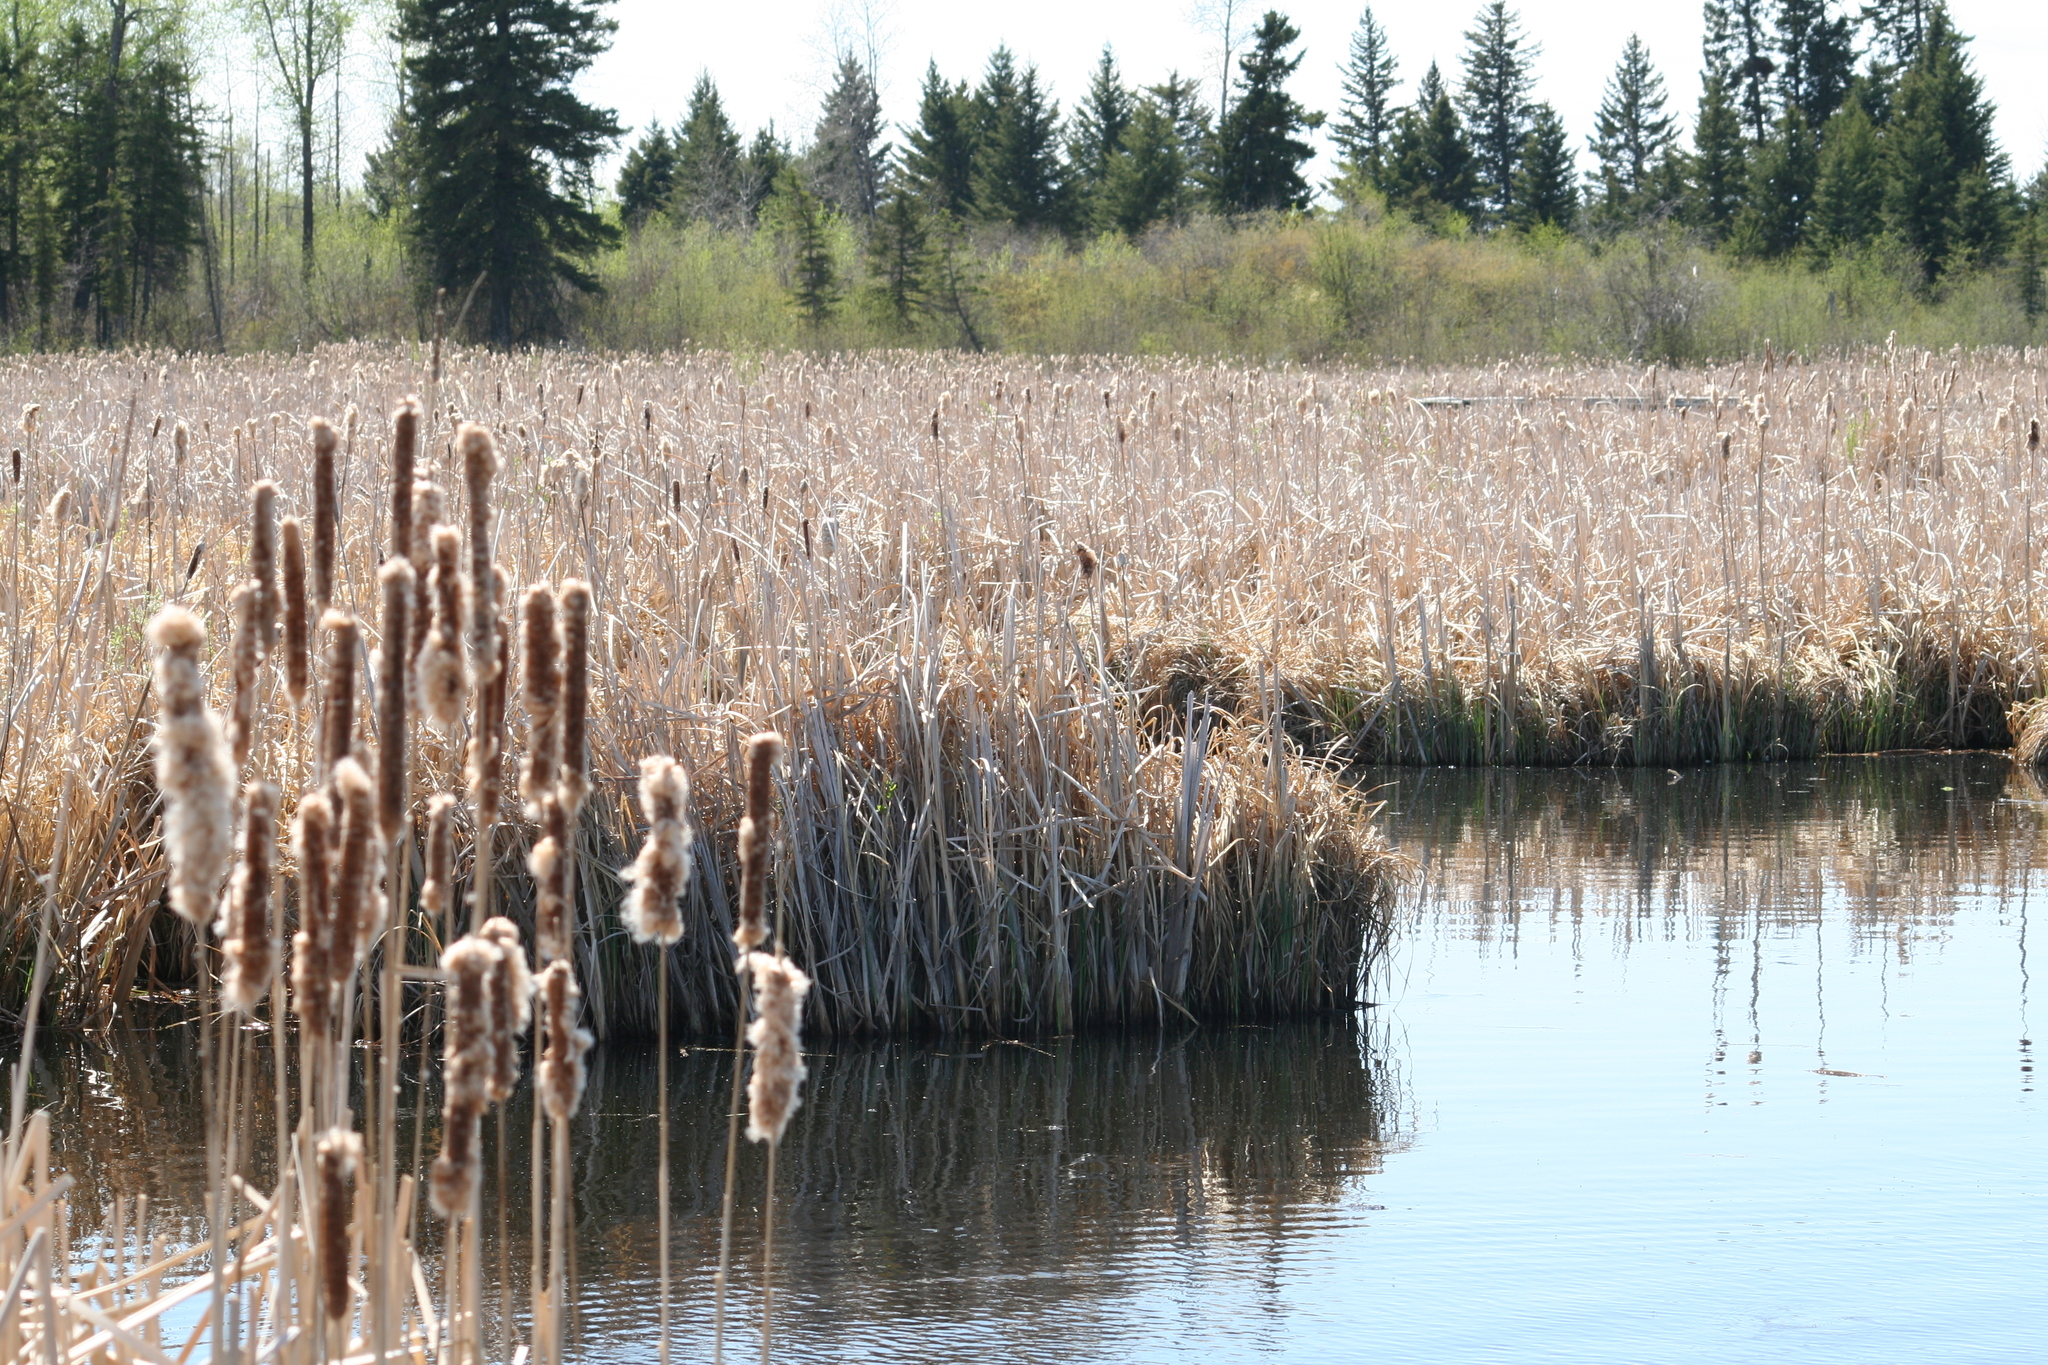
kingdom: Plantae
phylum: Tracheophyta
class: Liliopsida
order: Poales
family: Typhaceae
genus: Typha
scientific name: Typha latifolia
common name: Broadleaf cattail
